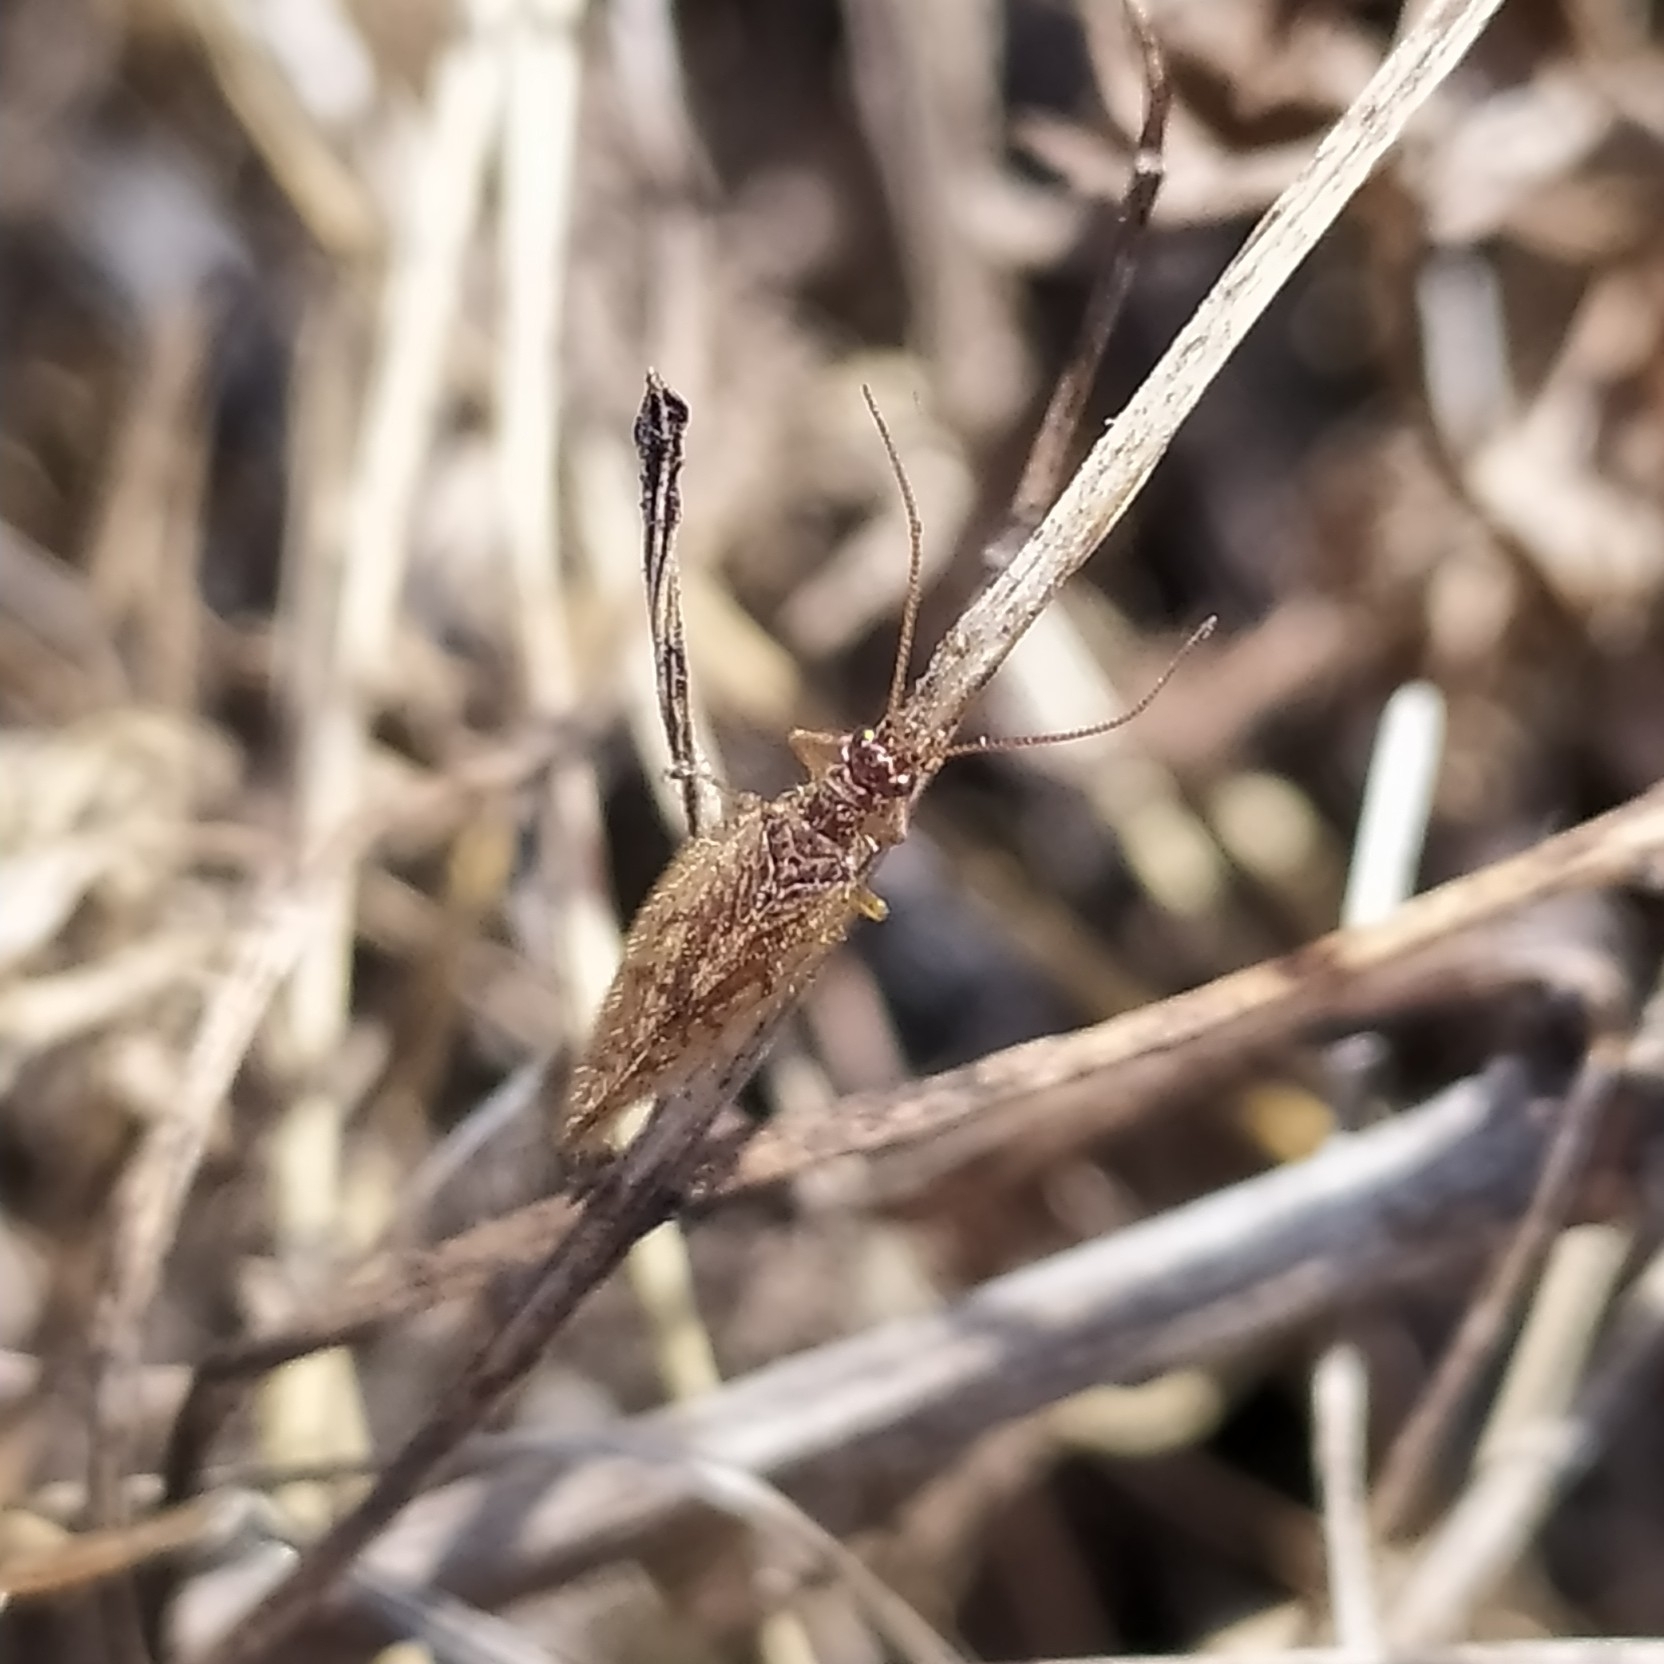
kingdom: Animalia
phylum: Arthropoda
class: Insecta
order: Neuroptera
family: Hemerobiidae
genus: Micromus
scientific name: Micromus angulatus
